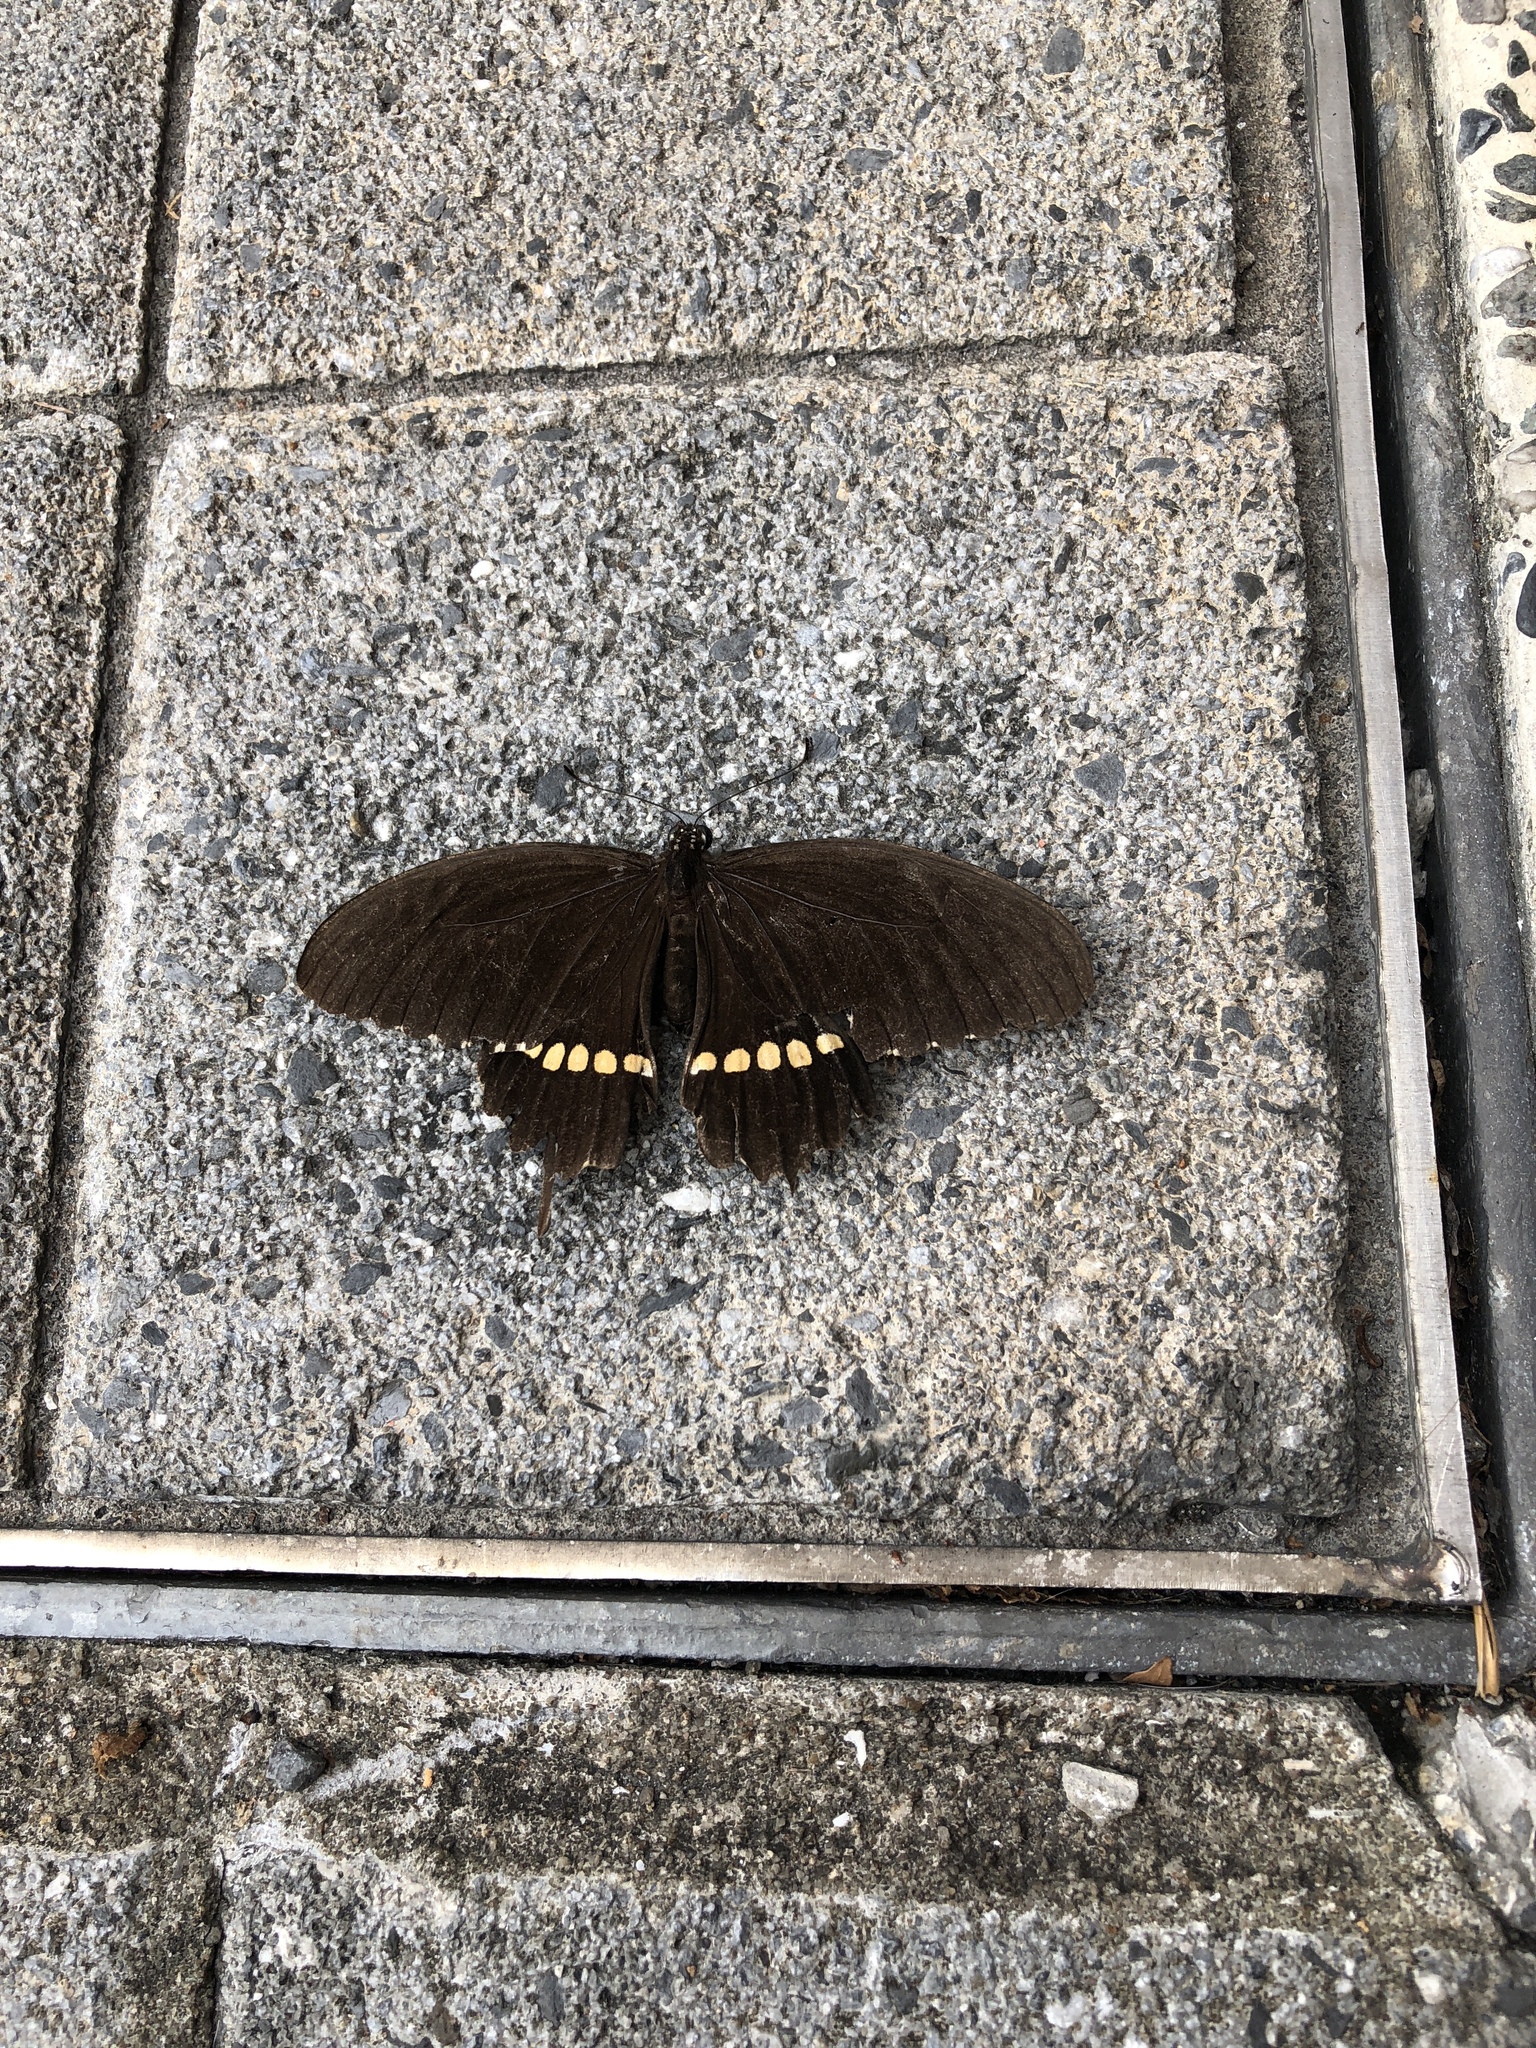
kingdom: Animalia
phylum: Arthropoda
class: Insecta
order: Lepidoptera
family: Papilionidae
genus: Papilio
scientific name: Papilio polytes
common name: Common mormon
